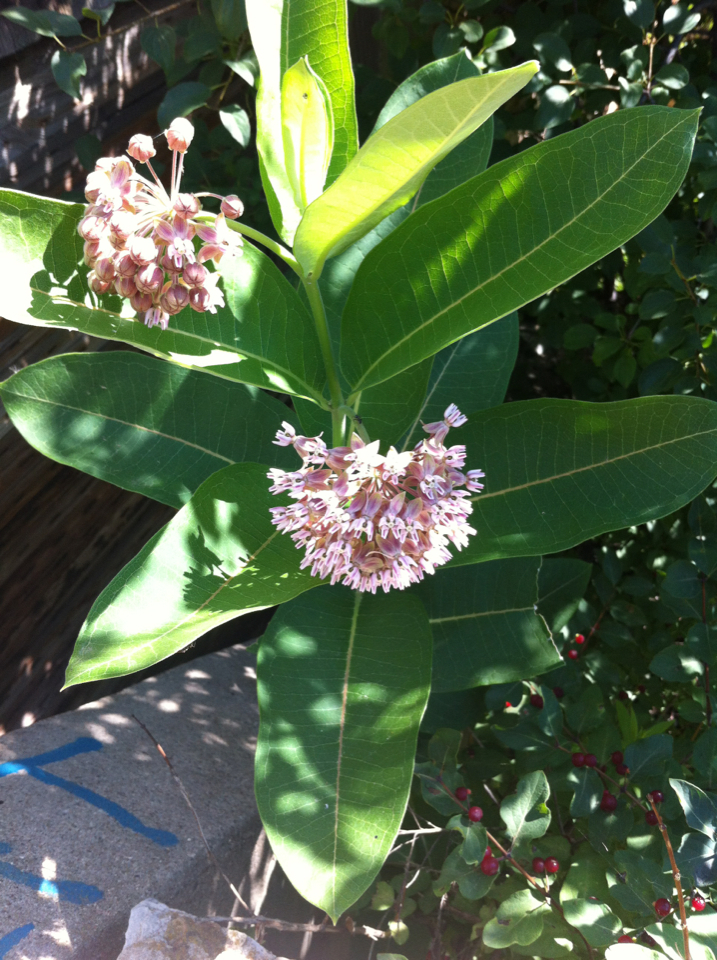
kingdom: Plantae
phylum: Tracheophyta
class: Magnoliopsida
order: Gentianales
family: Apocynaceae
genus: Asclepias
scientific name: Asclepias syriaca
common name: Common milkweed
